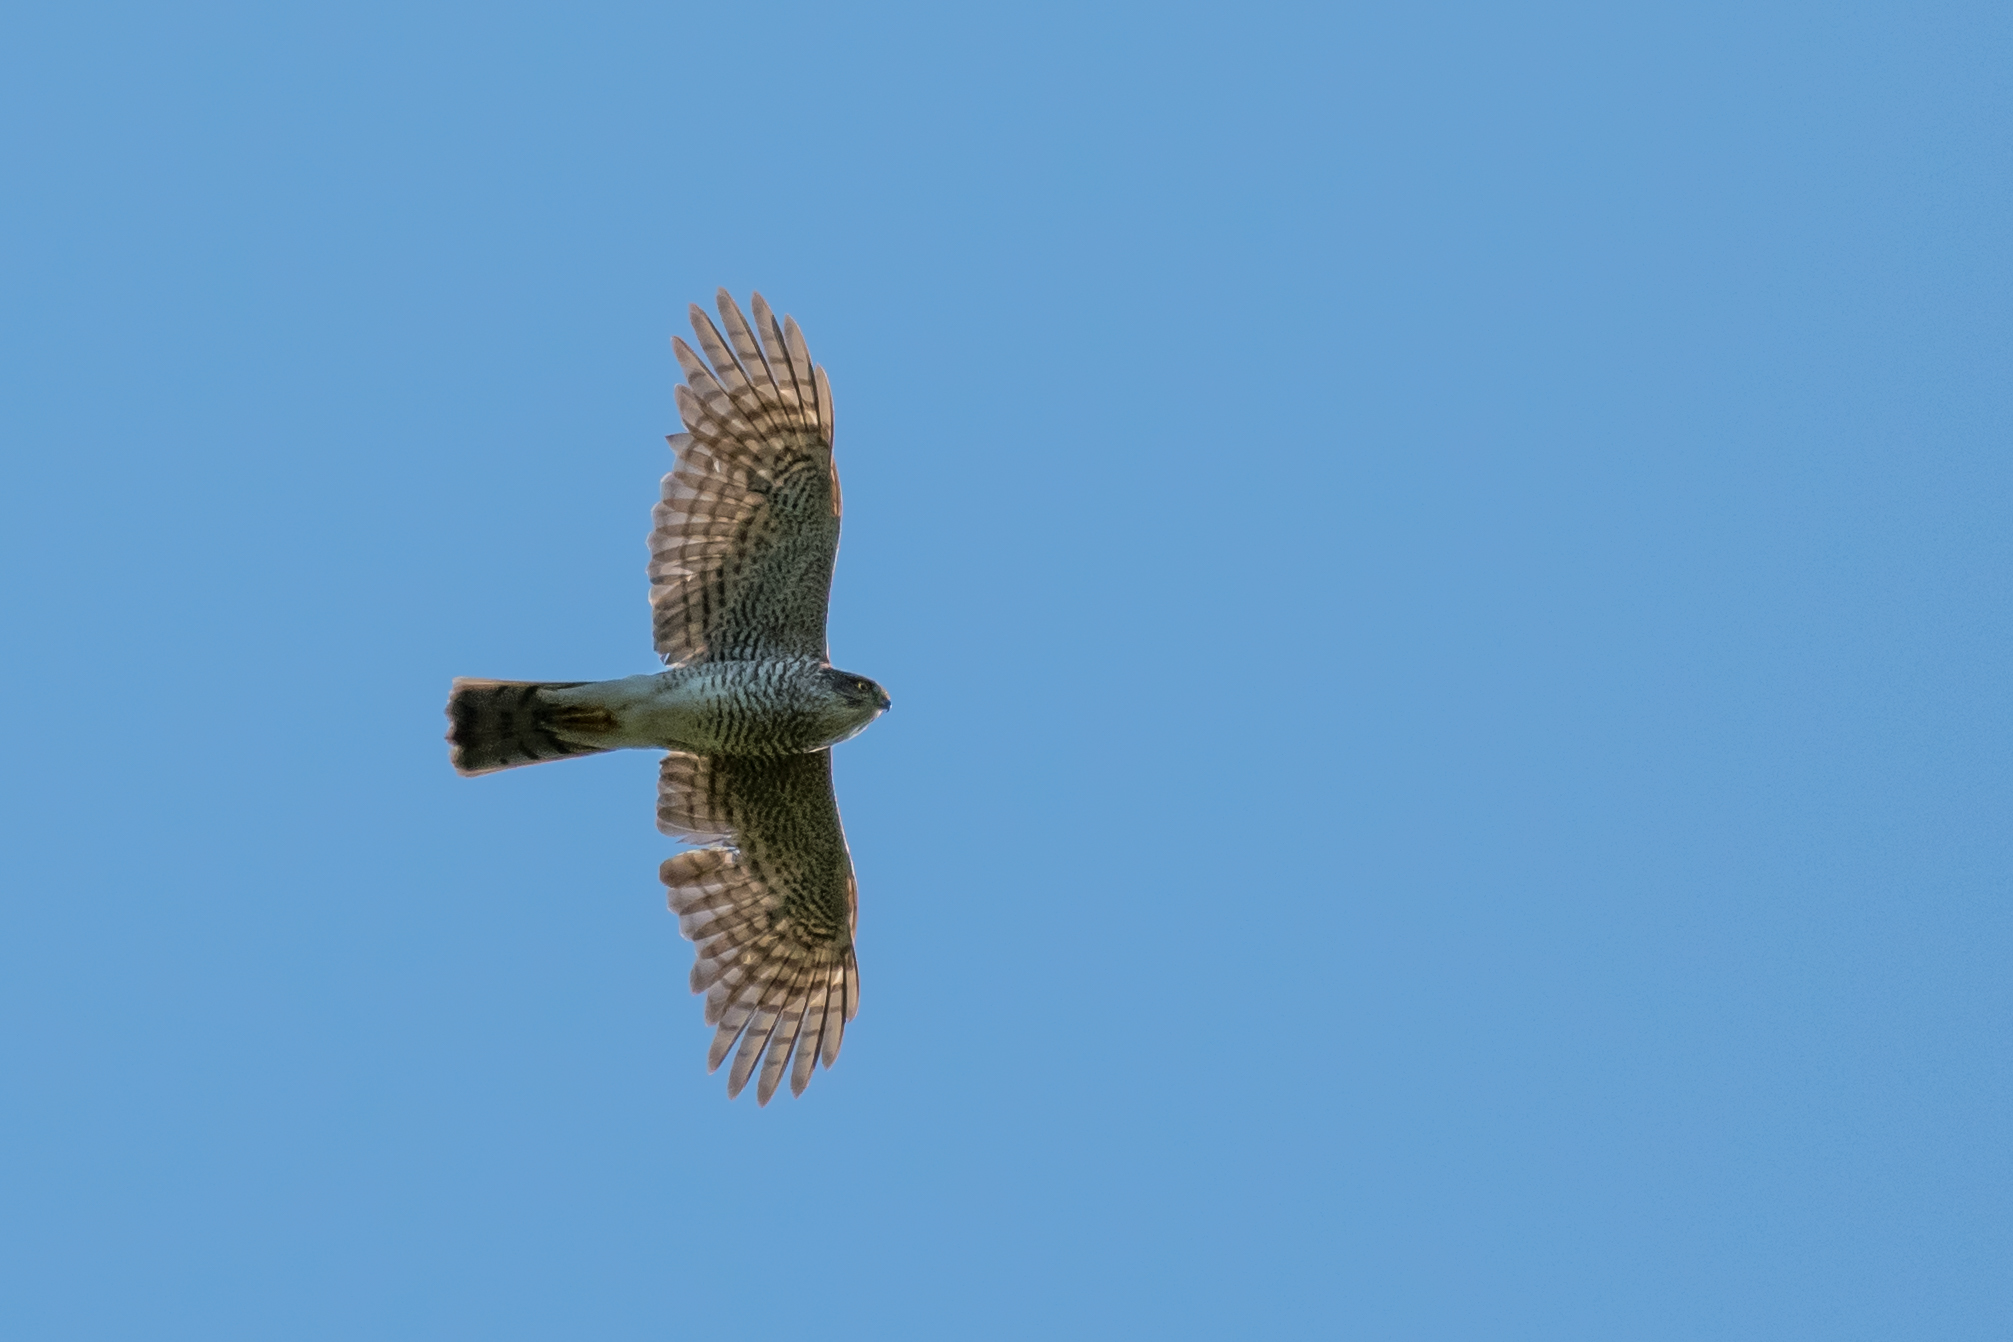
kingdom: Animalia
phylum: Chordata
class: Aves
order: Accipitriformes
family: Accipitridae
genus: Accipiter
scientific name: Accipiter nisus
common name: Eurasian sparrowhawk
